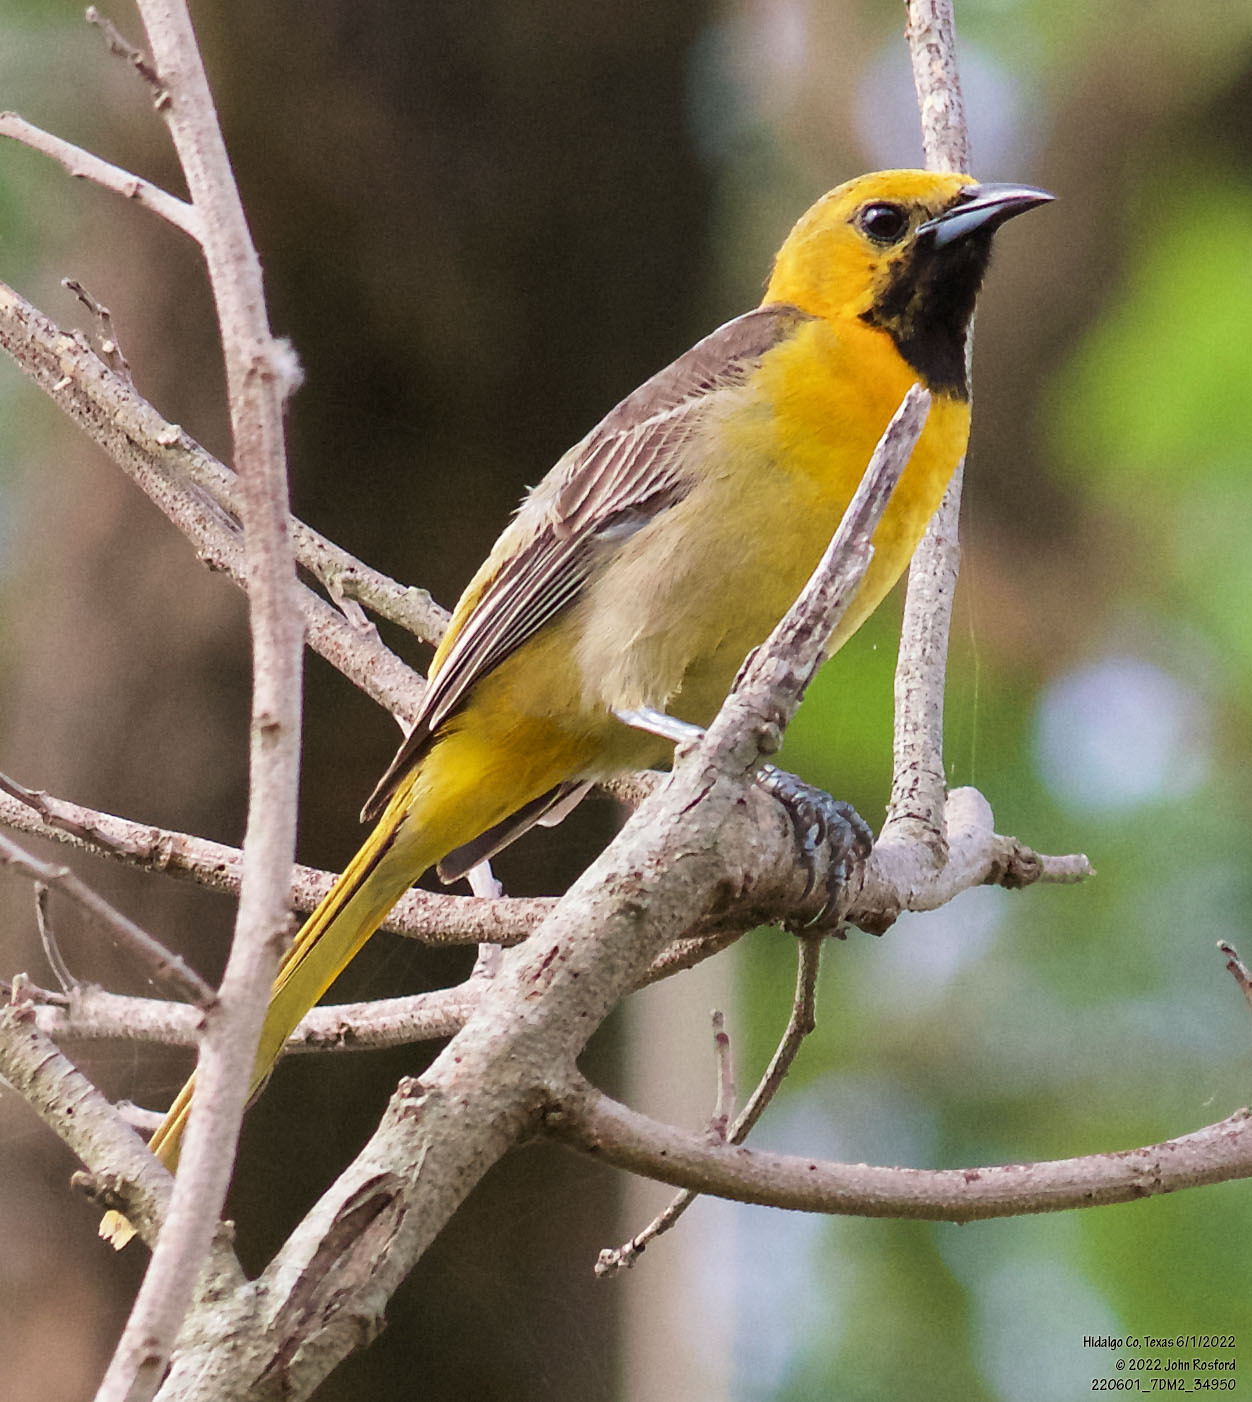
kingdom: Animalia
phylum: Chordata
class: Aves
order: Passeriformes
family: Icteridae
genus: Icterus
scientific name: Icterus cucullatus
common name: Hooded oriole
